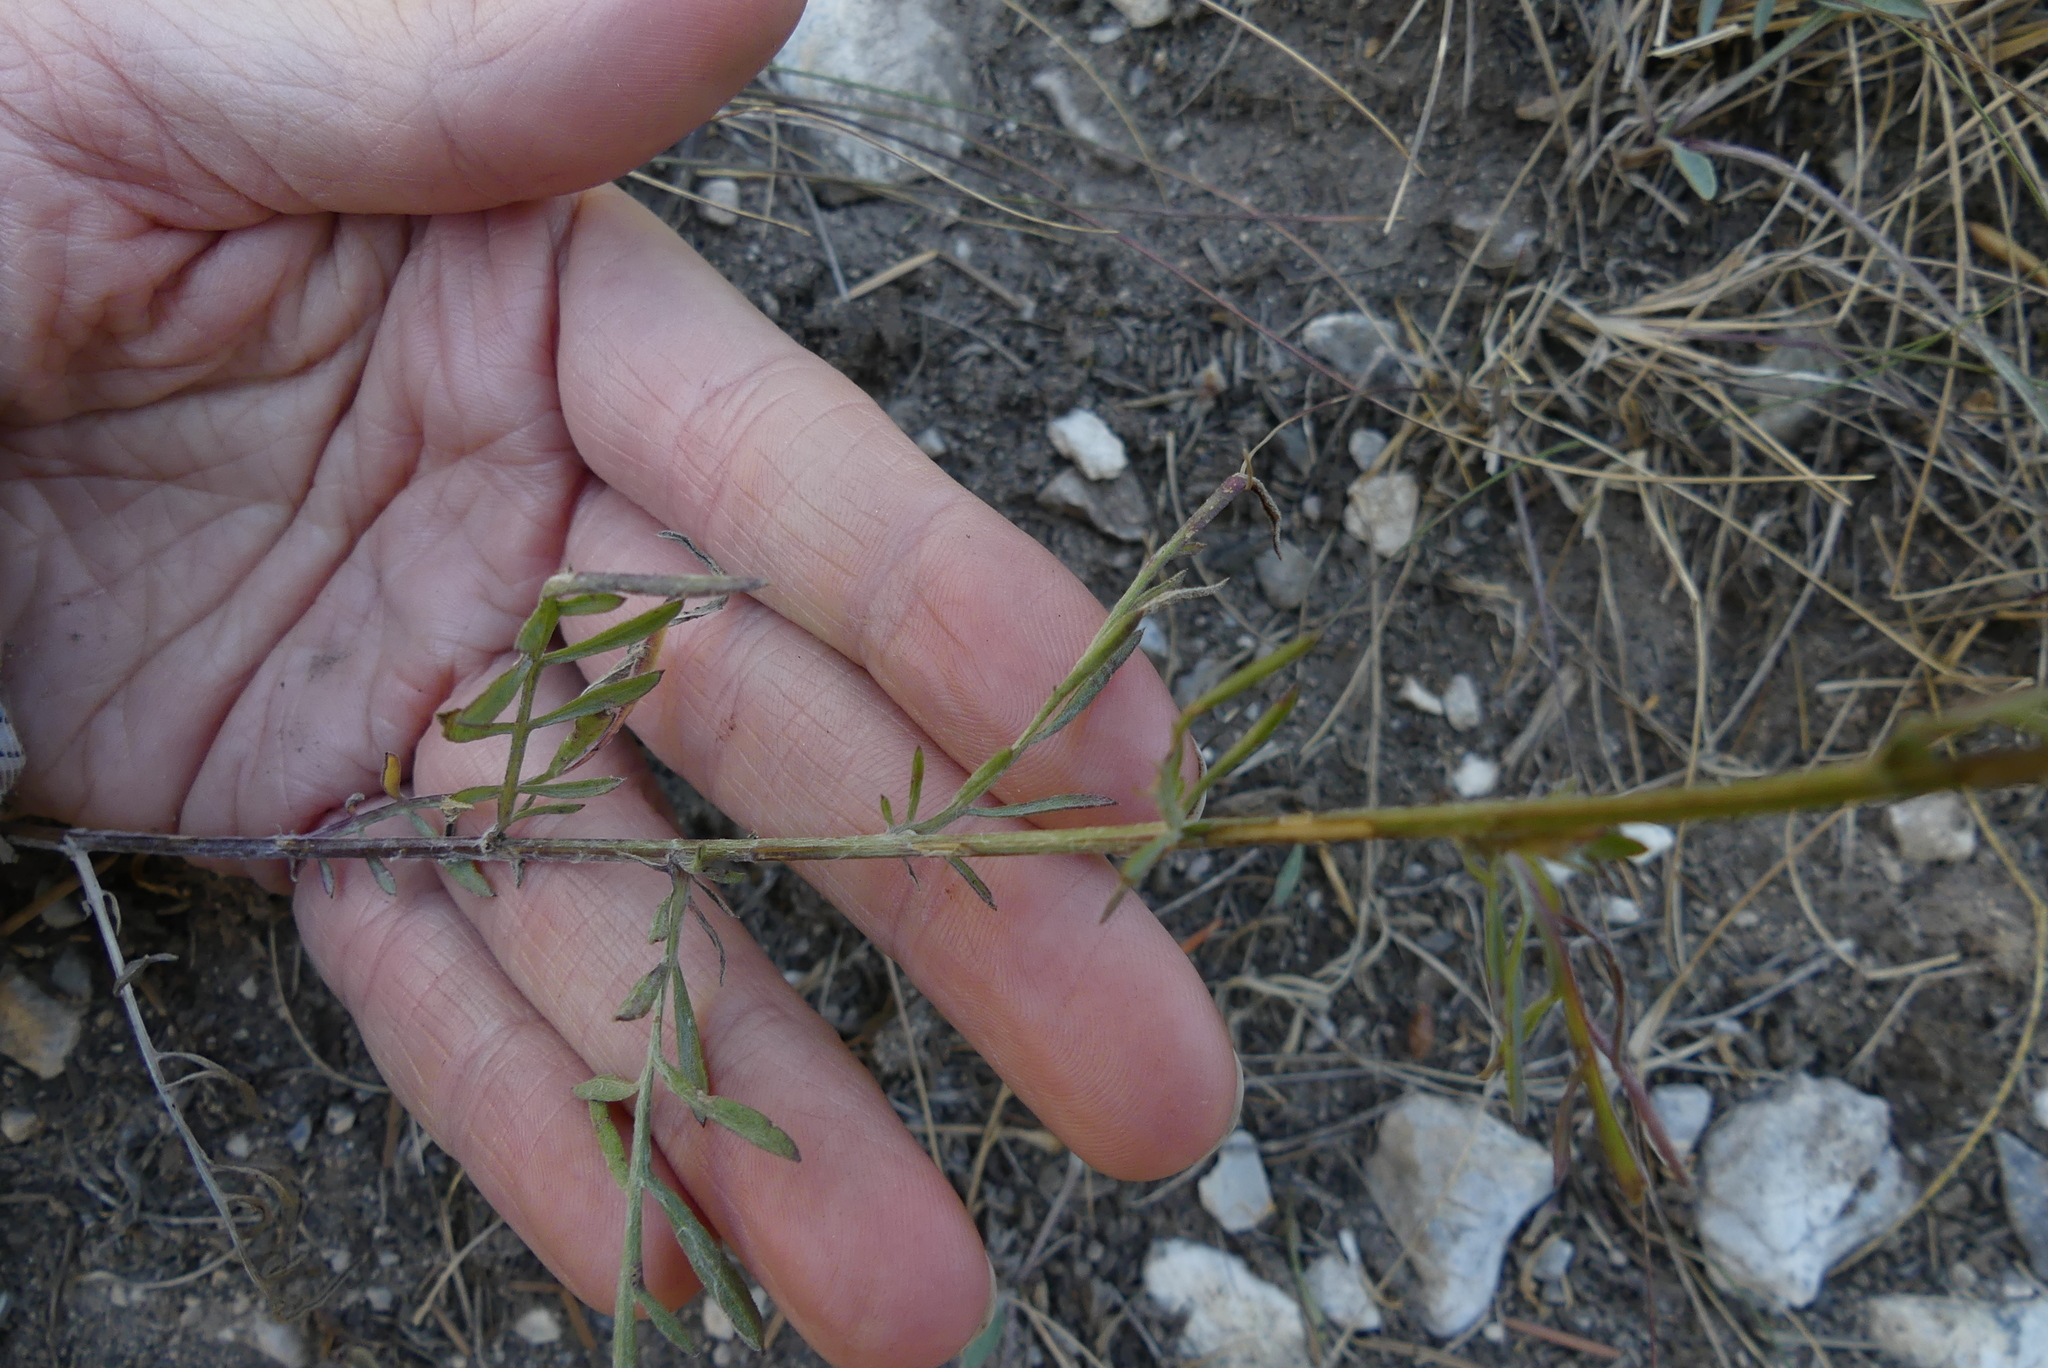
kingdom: Plantae
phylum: Tracheophyta
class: Magnoliopsida
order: Asterales
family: Asteraceae
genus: Centaurea
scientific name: Centaurea australis
